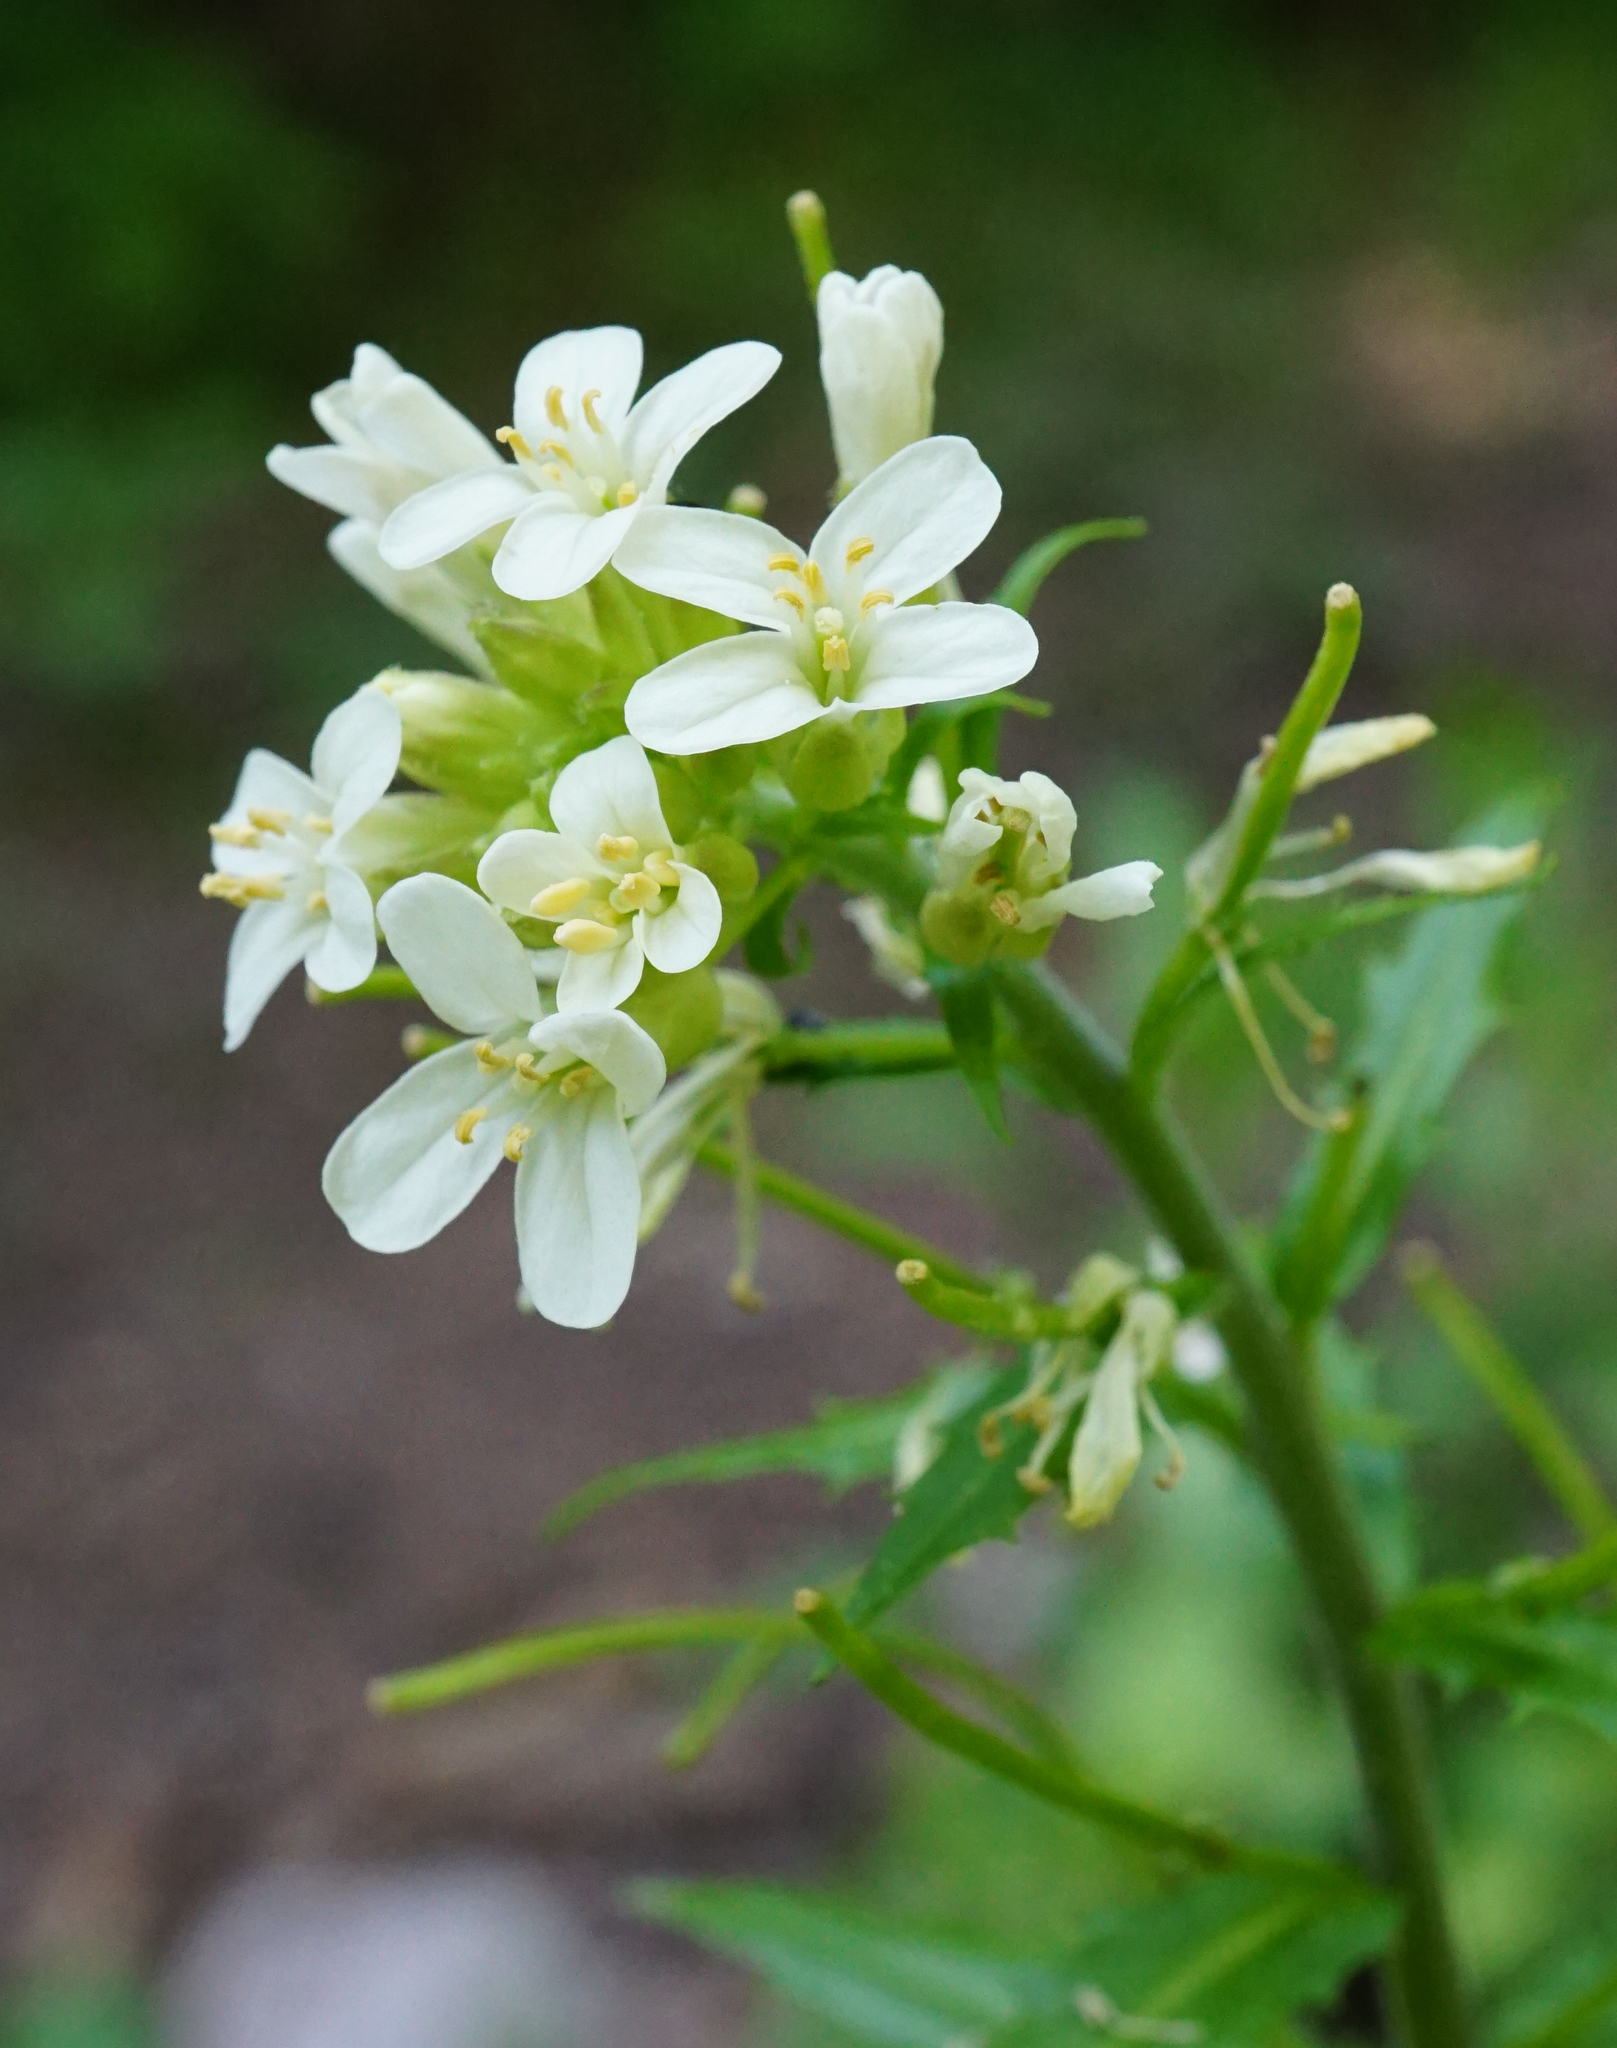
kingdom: Plantae
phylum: Tracheophyta
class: Magnoliopsida
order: Brassicales
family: Brassicaceae
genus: Pseudoturritis
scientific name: Pseudoturritis turrita
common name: Tower cress
